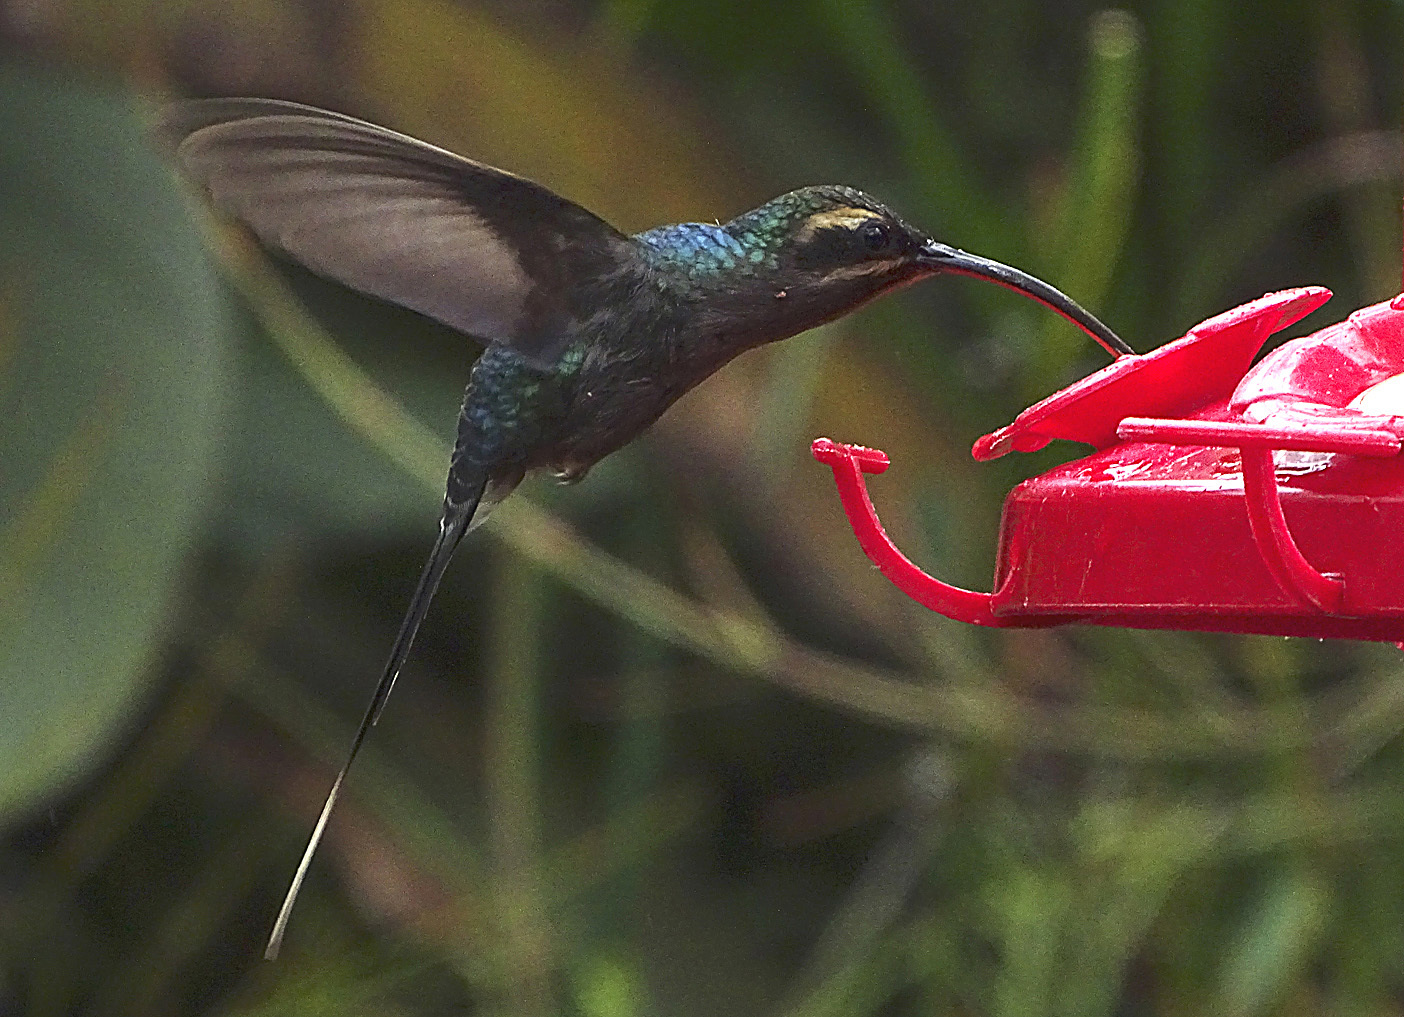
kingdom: Animalia
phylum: Chordata
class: Aves
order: Apodiformes
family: Trochilidae
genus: Phaethornis
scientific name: Phaethornis guy
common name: Green hermit
